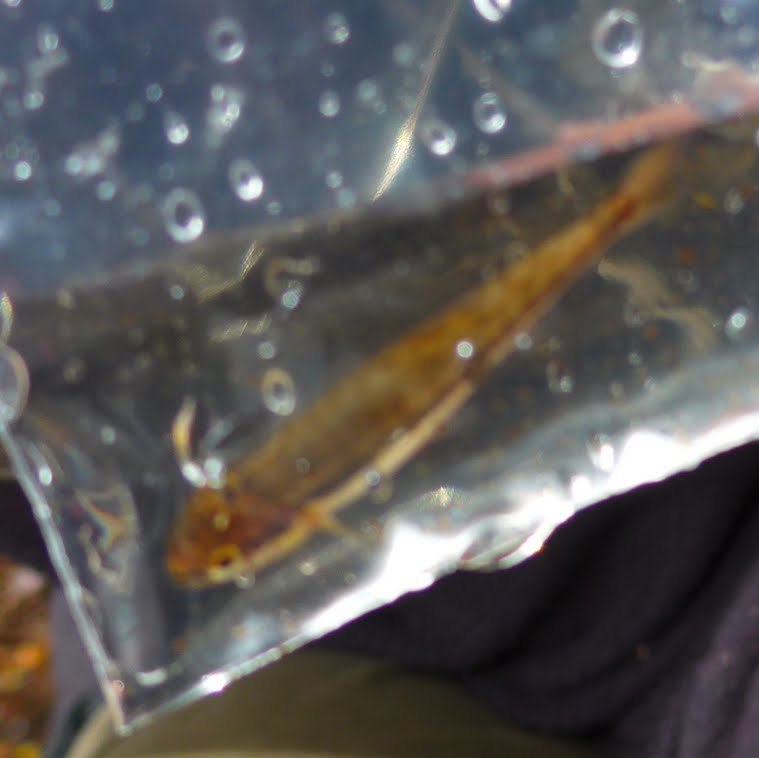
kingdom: Animalia
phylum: Chordata
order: Cypriniformes
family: Cyprinidae
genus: Phoxinus
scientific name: Phoxinus phoxinus
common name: Minnow
